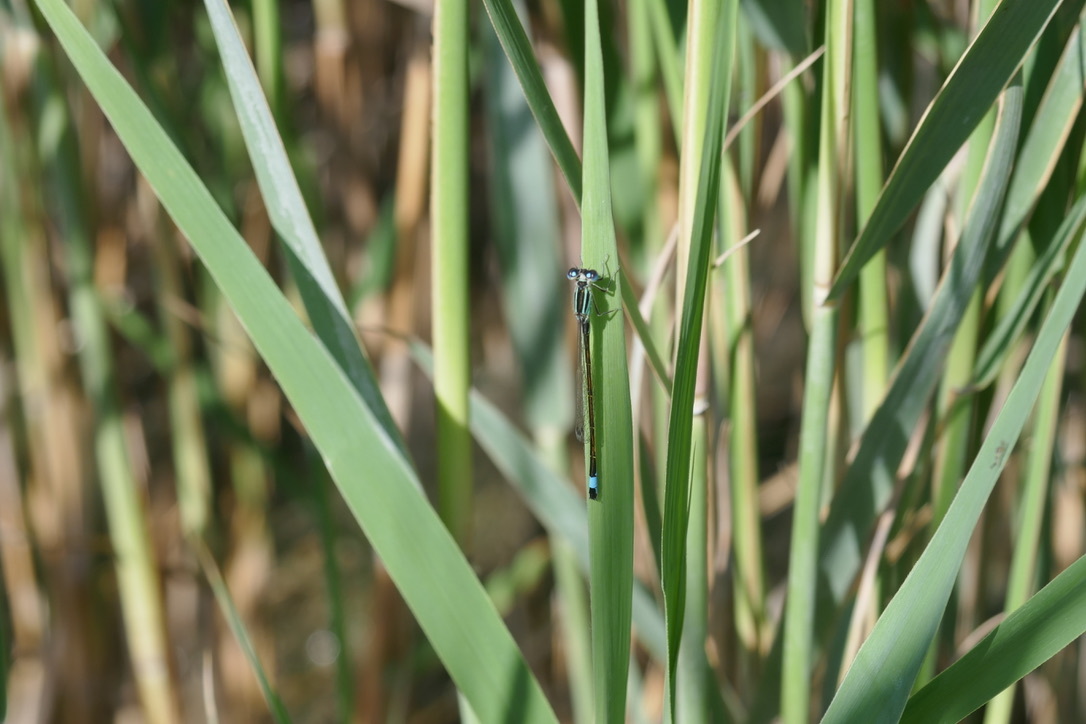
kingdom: Animalia
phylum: Arthropoda
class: Insecta
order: Odonata
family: Coenagrionidae
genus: Ischnura
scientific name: Ischnura elegans
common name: Blue-tailed damselfly
